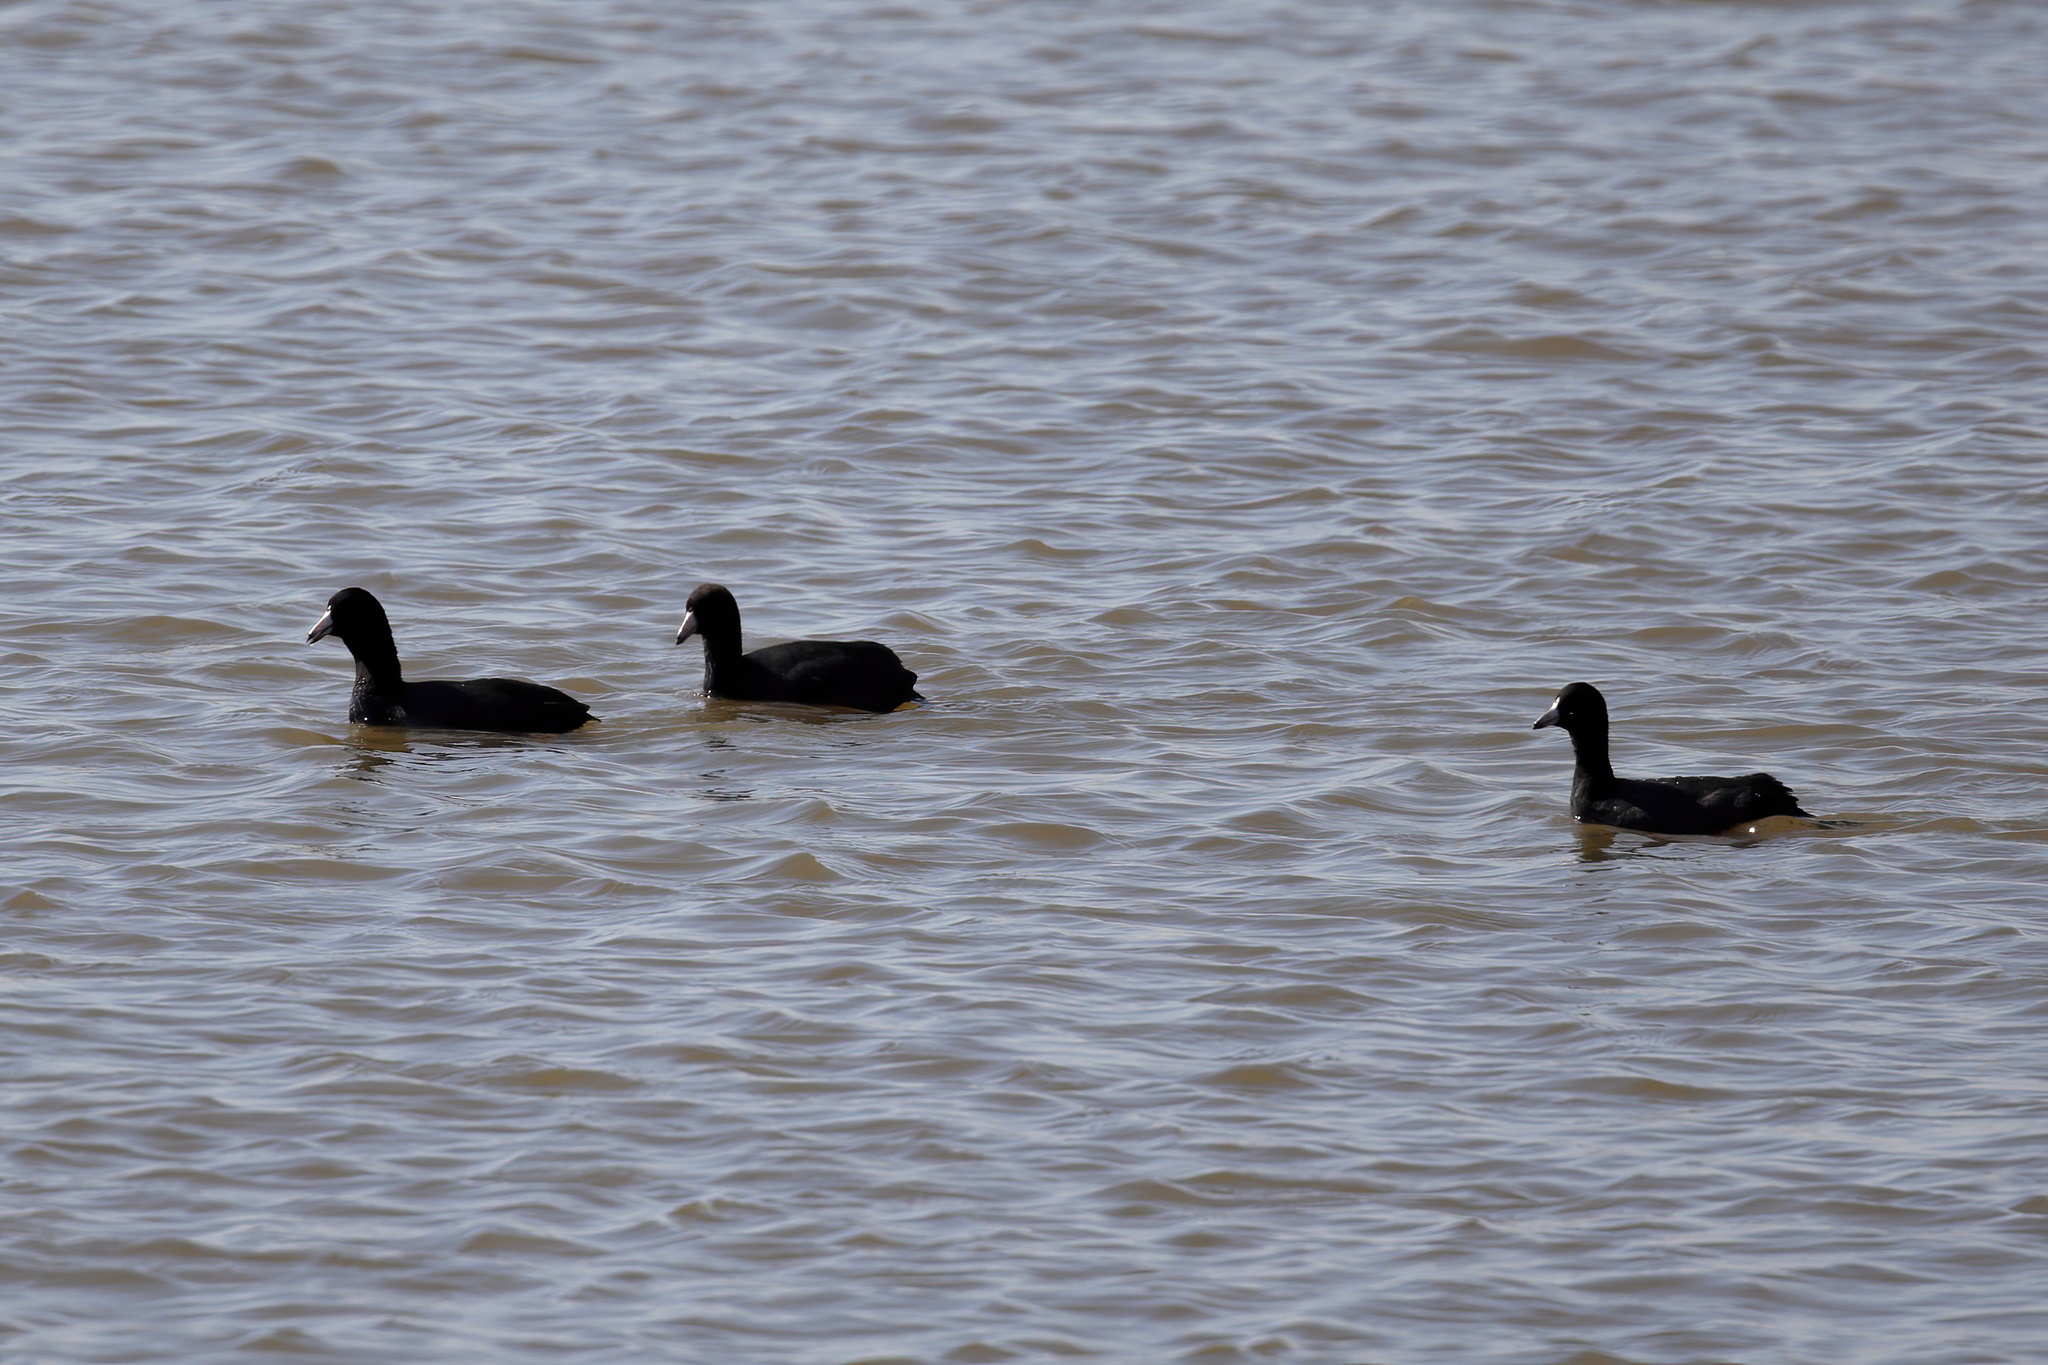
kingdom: Animalia
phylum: Chordata
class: Aves
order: Gruiformes
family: Rallidae
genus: Fulica
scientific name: Fulica americana
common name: American coot
